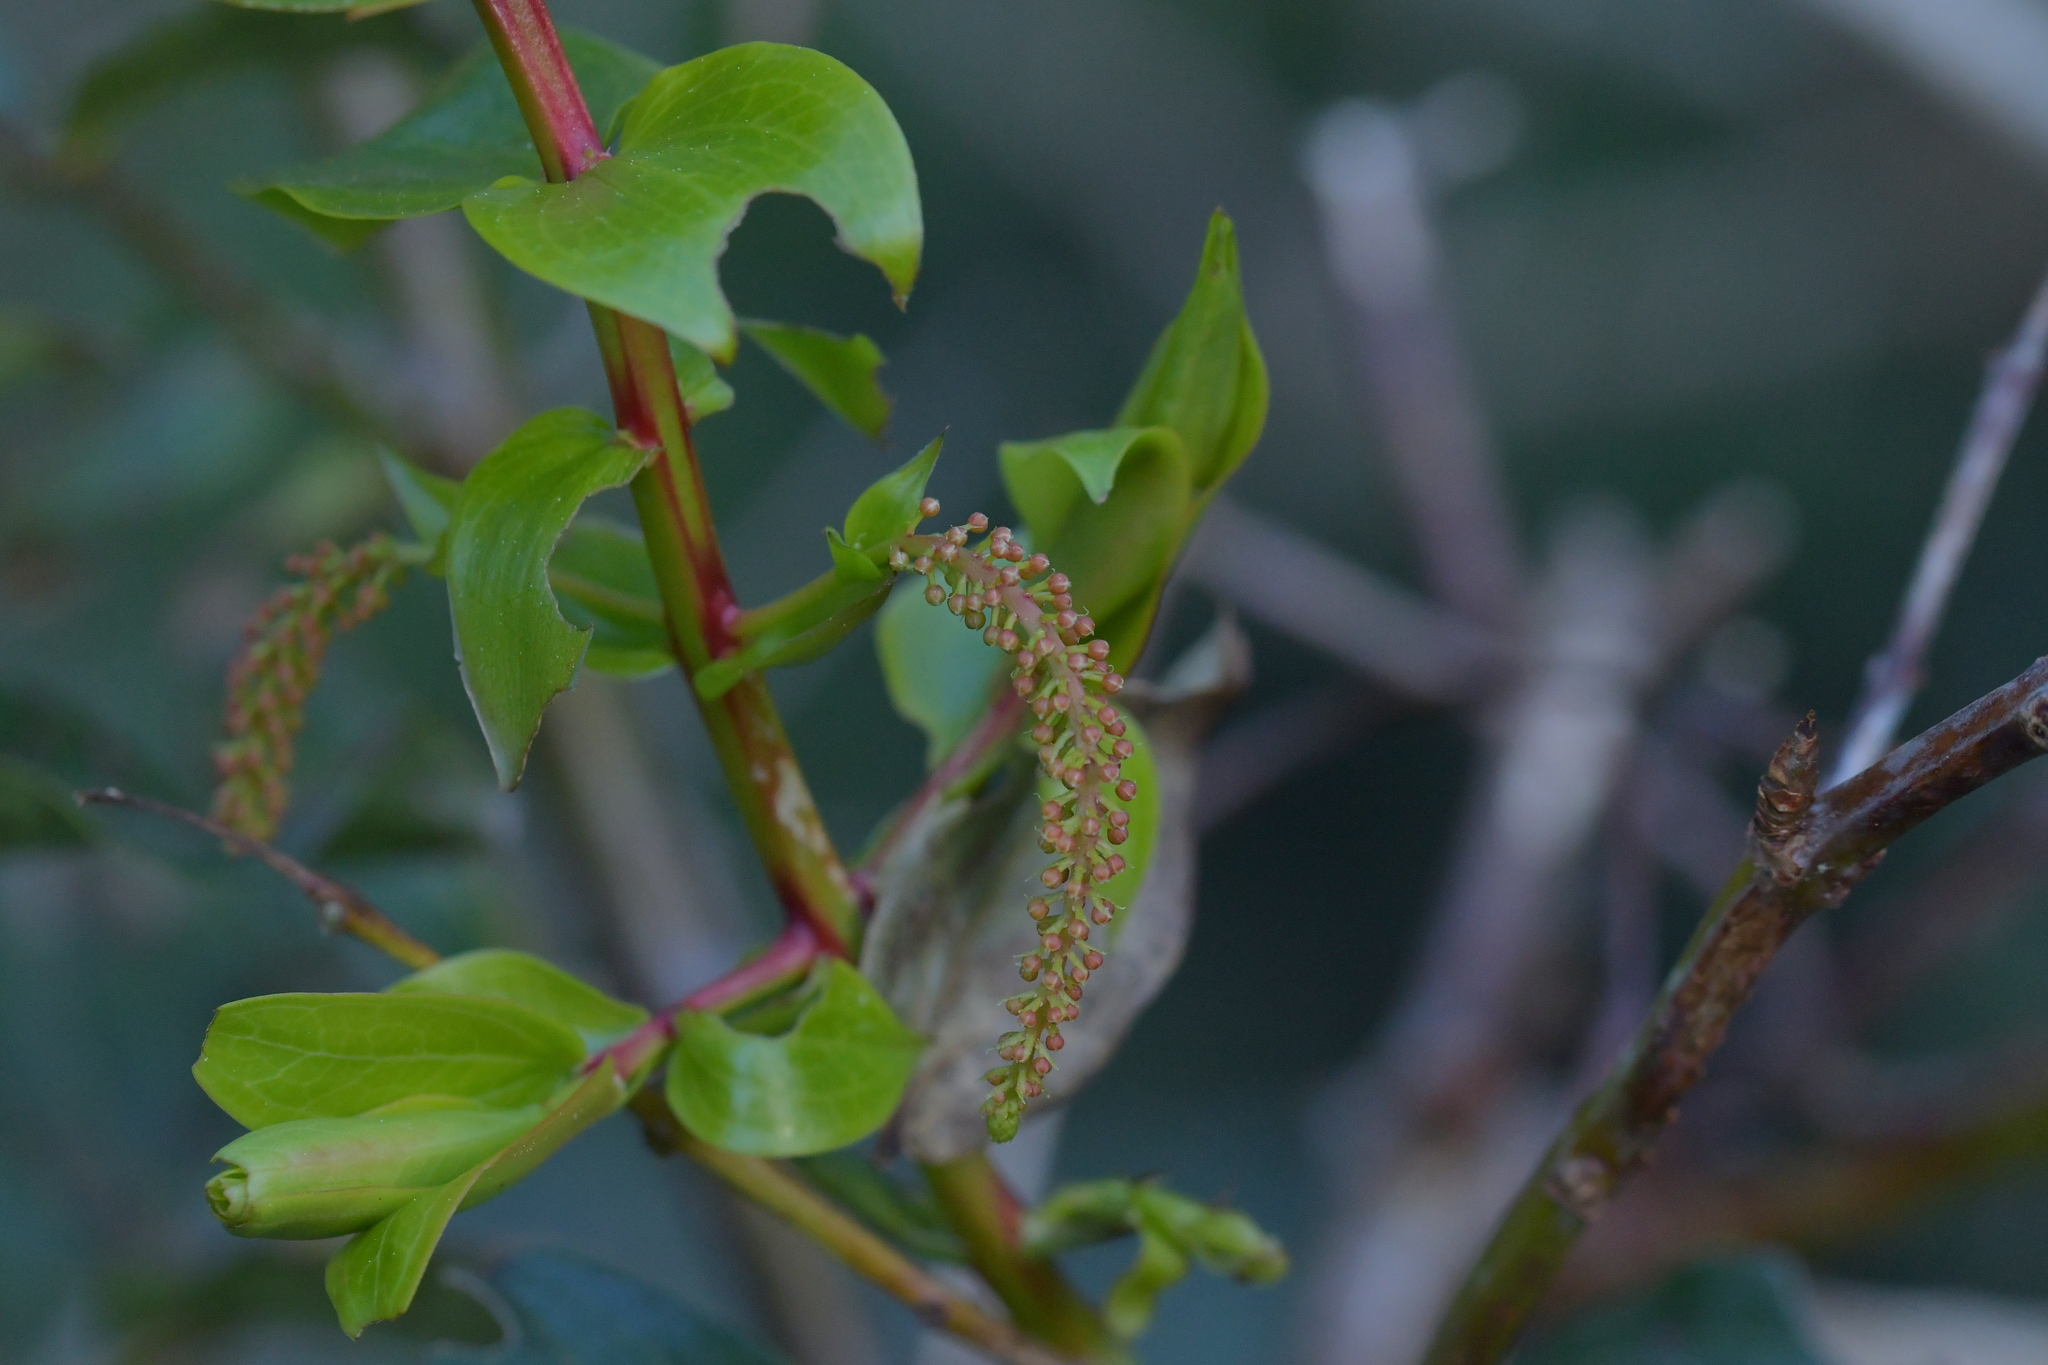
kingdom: Plantae
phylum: Tracheophyta
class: Magnoliopsida
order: Cucurbitales
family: Coriariaceae
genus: Coriaria
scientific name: Coriaria arborea
